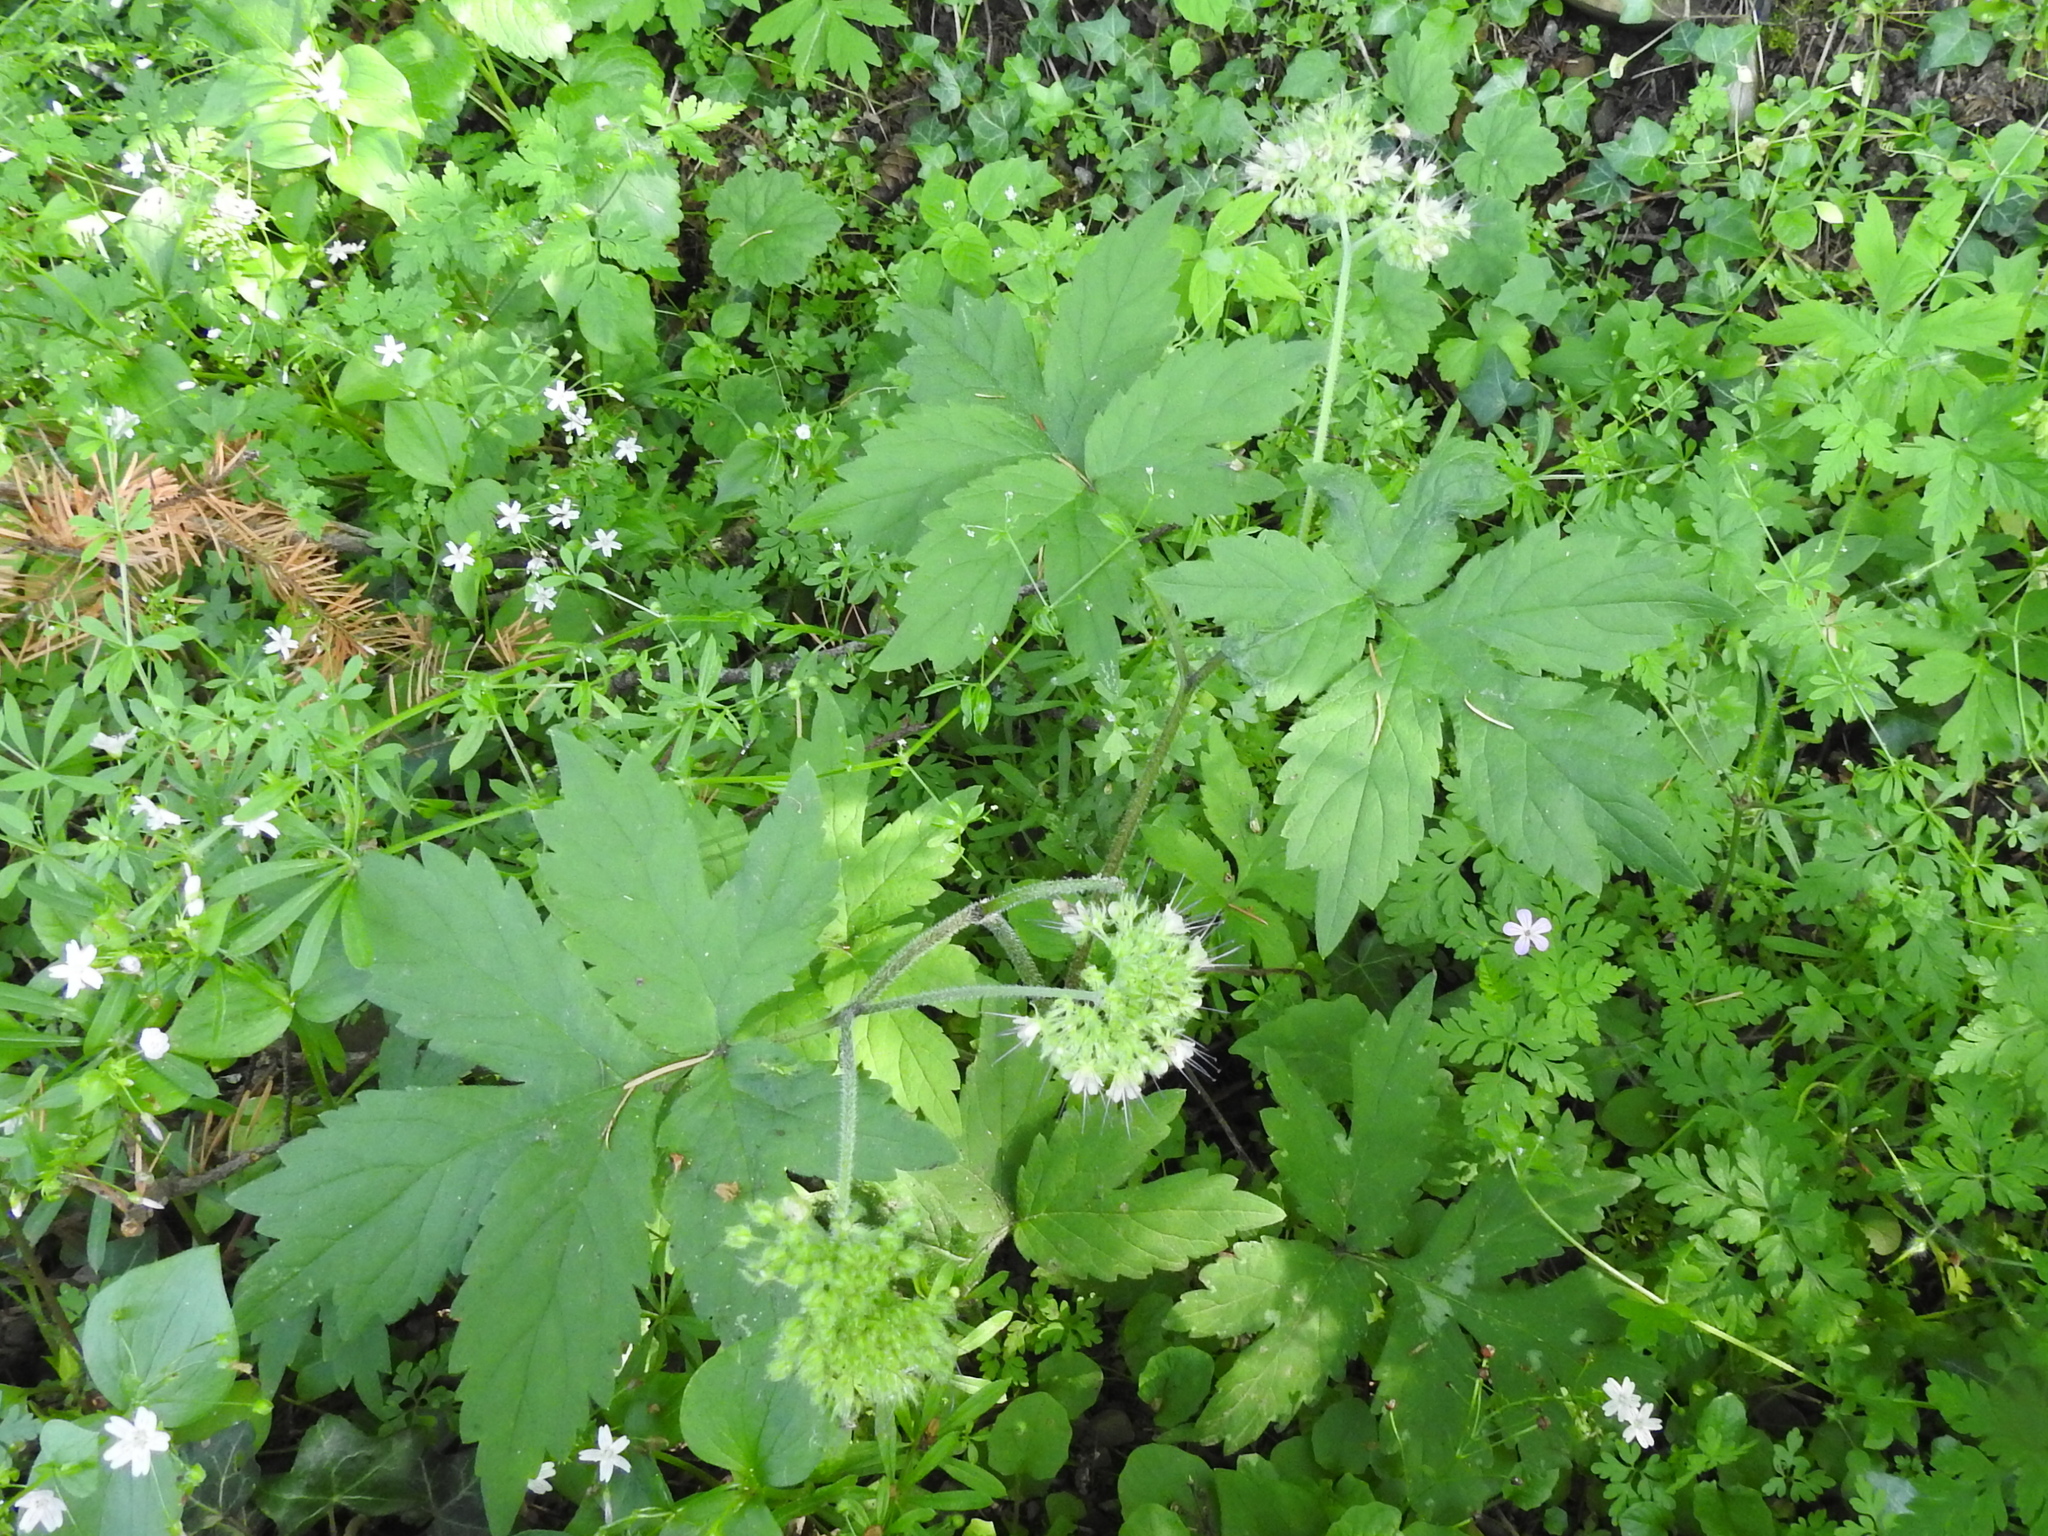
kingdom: Plantae
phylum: Tracheophyta
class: Magnoliopsida
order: Boraginales
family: Hydrophyllaceae
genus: Hydrophyllum
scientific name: Hydrophyllum tenuipes
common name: Pacific waterleaf
